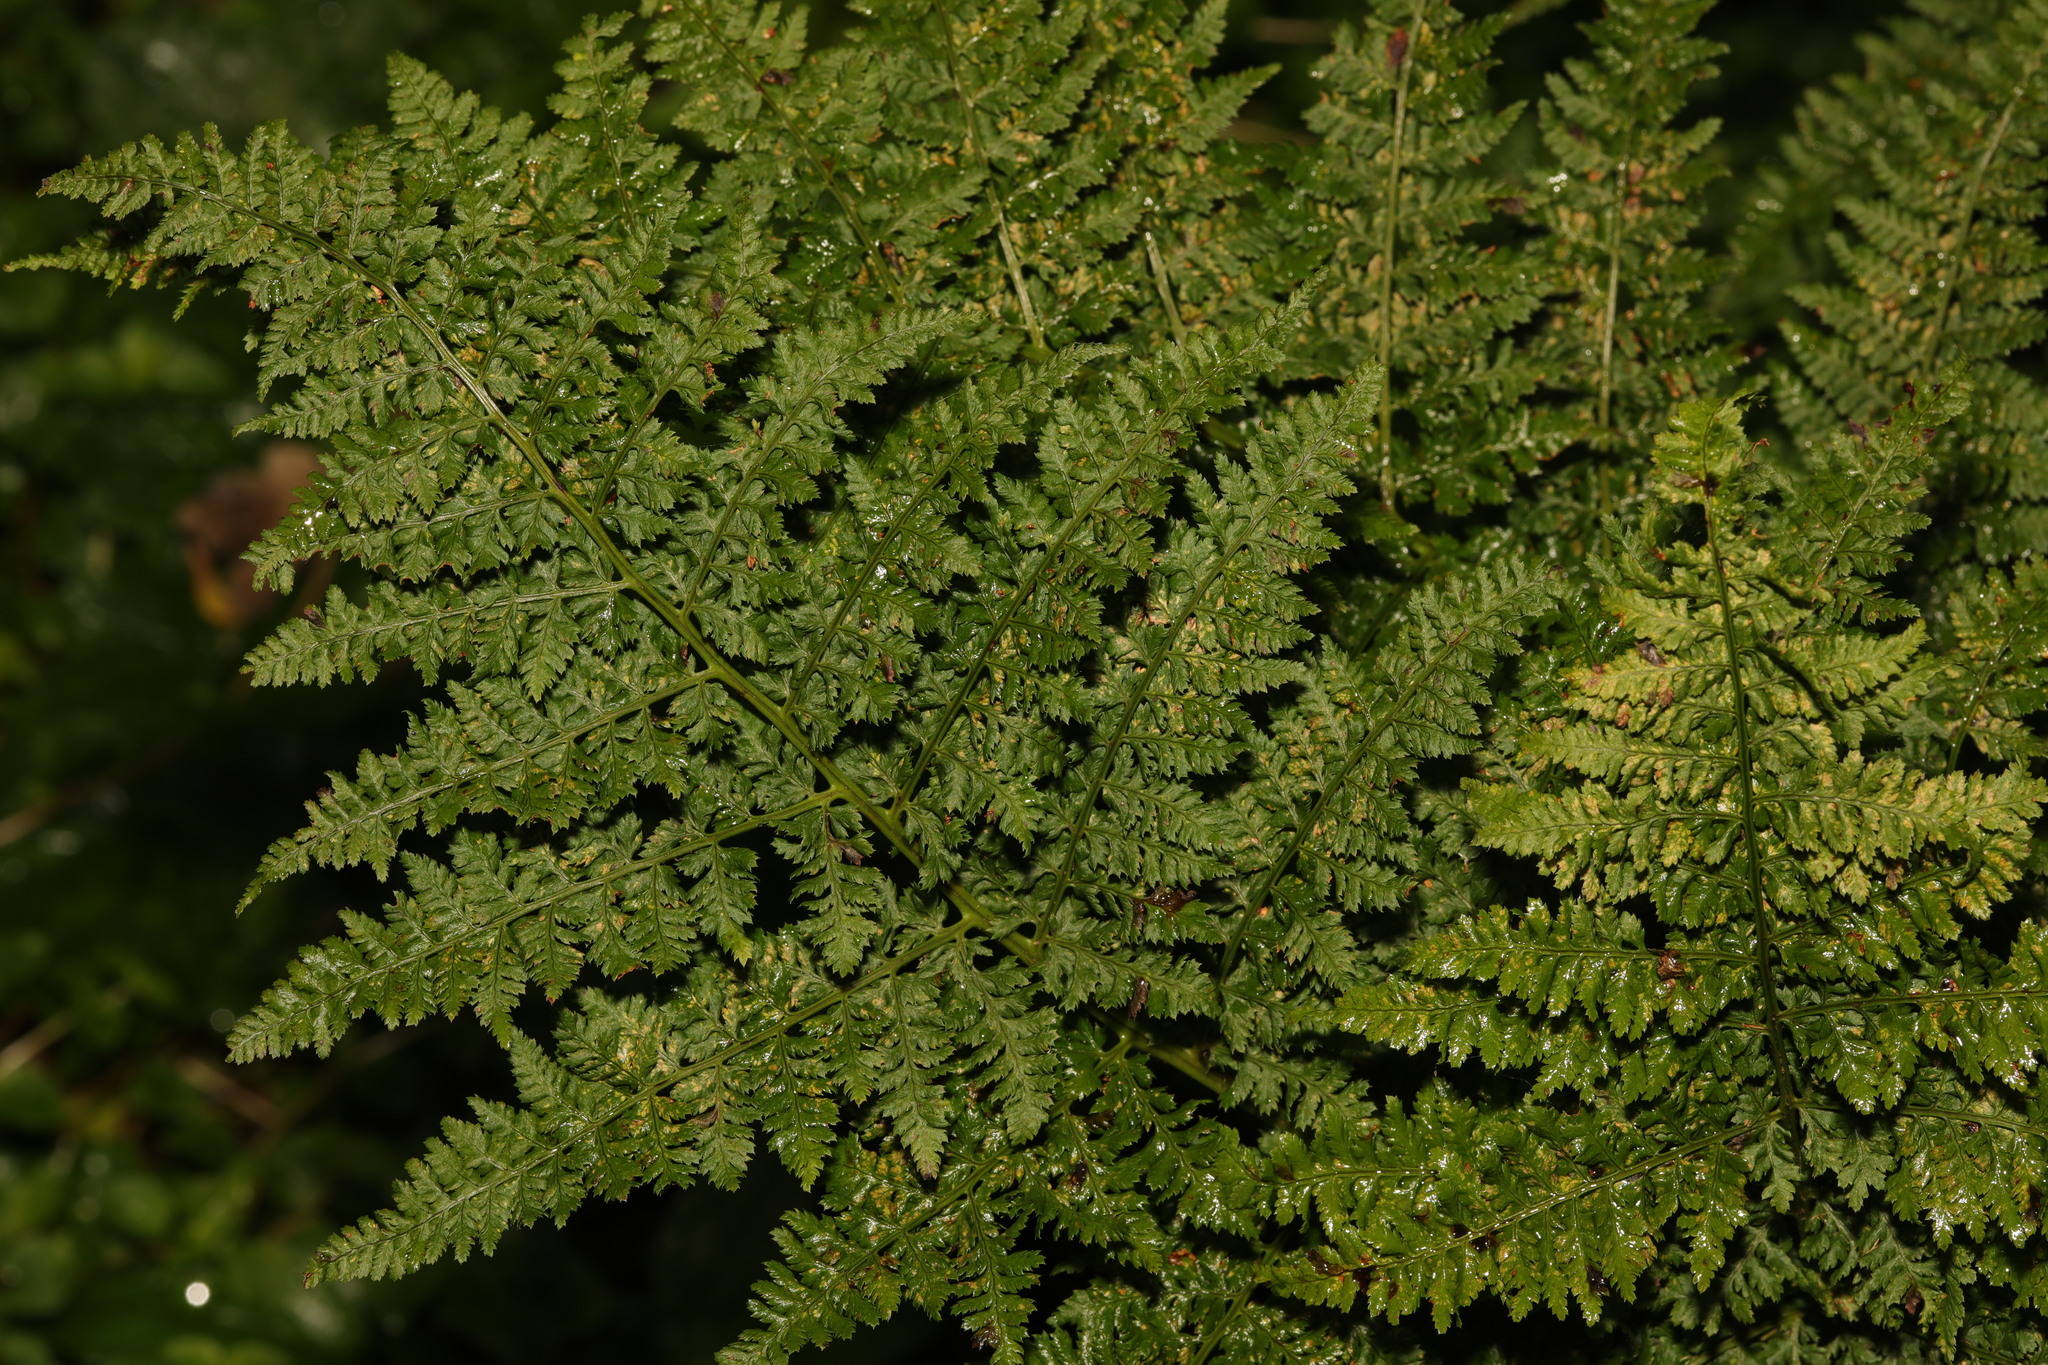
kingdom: Plantae
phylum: Tracheophyta
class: Polypodiopsida
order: Polypodiales
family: Dryopteridaceae
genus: Dryopteris
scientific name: Dryopteris dilatata
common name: Broad buckler-fern
